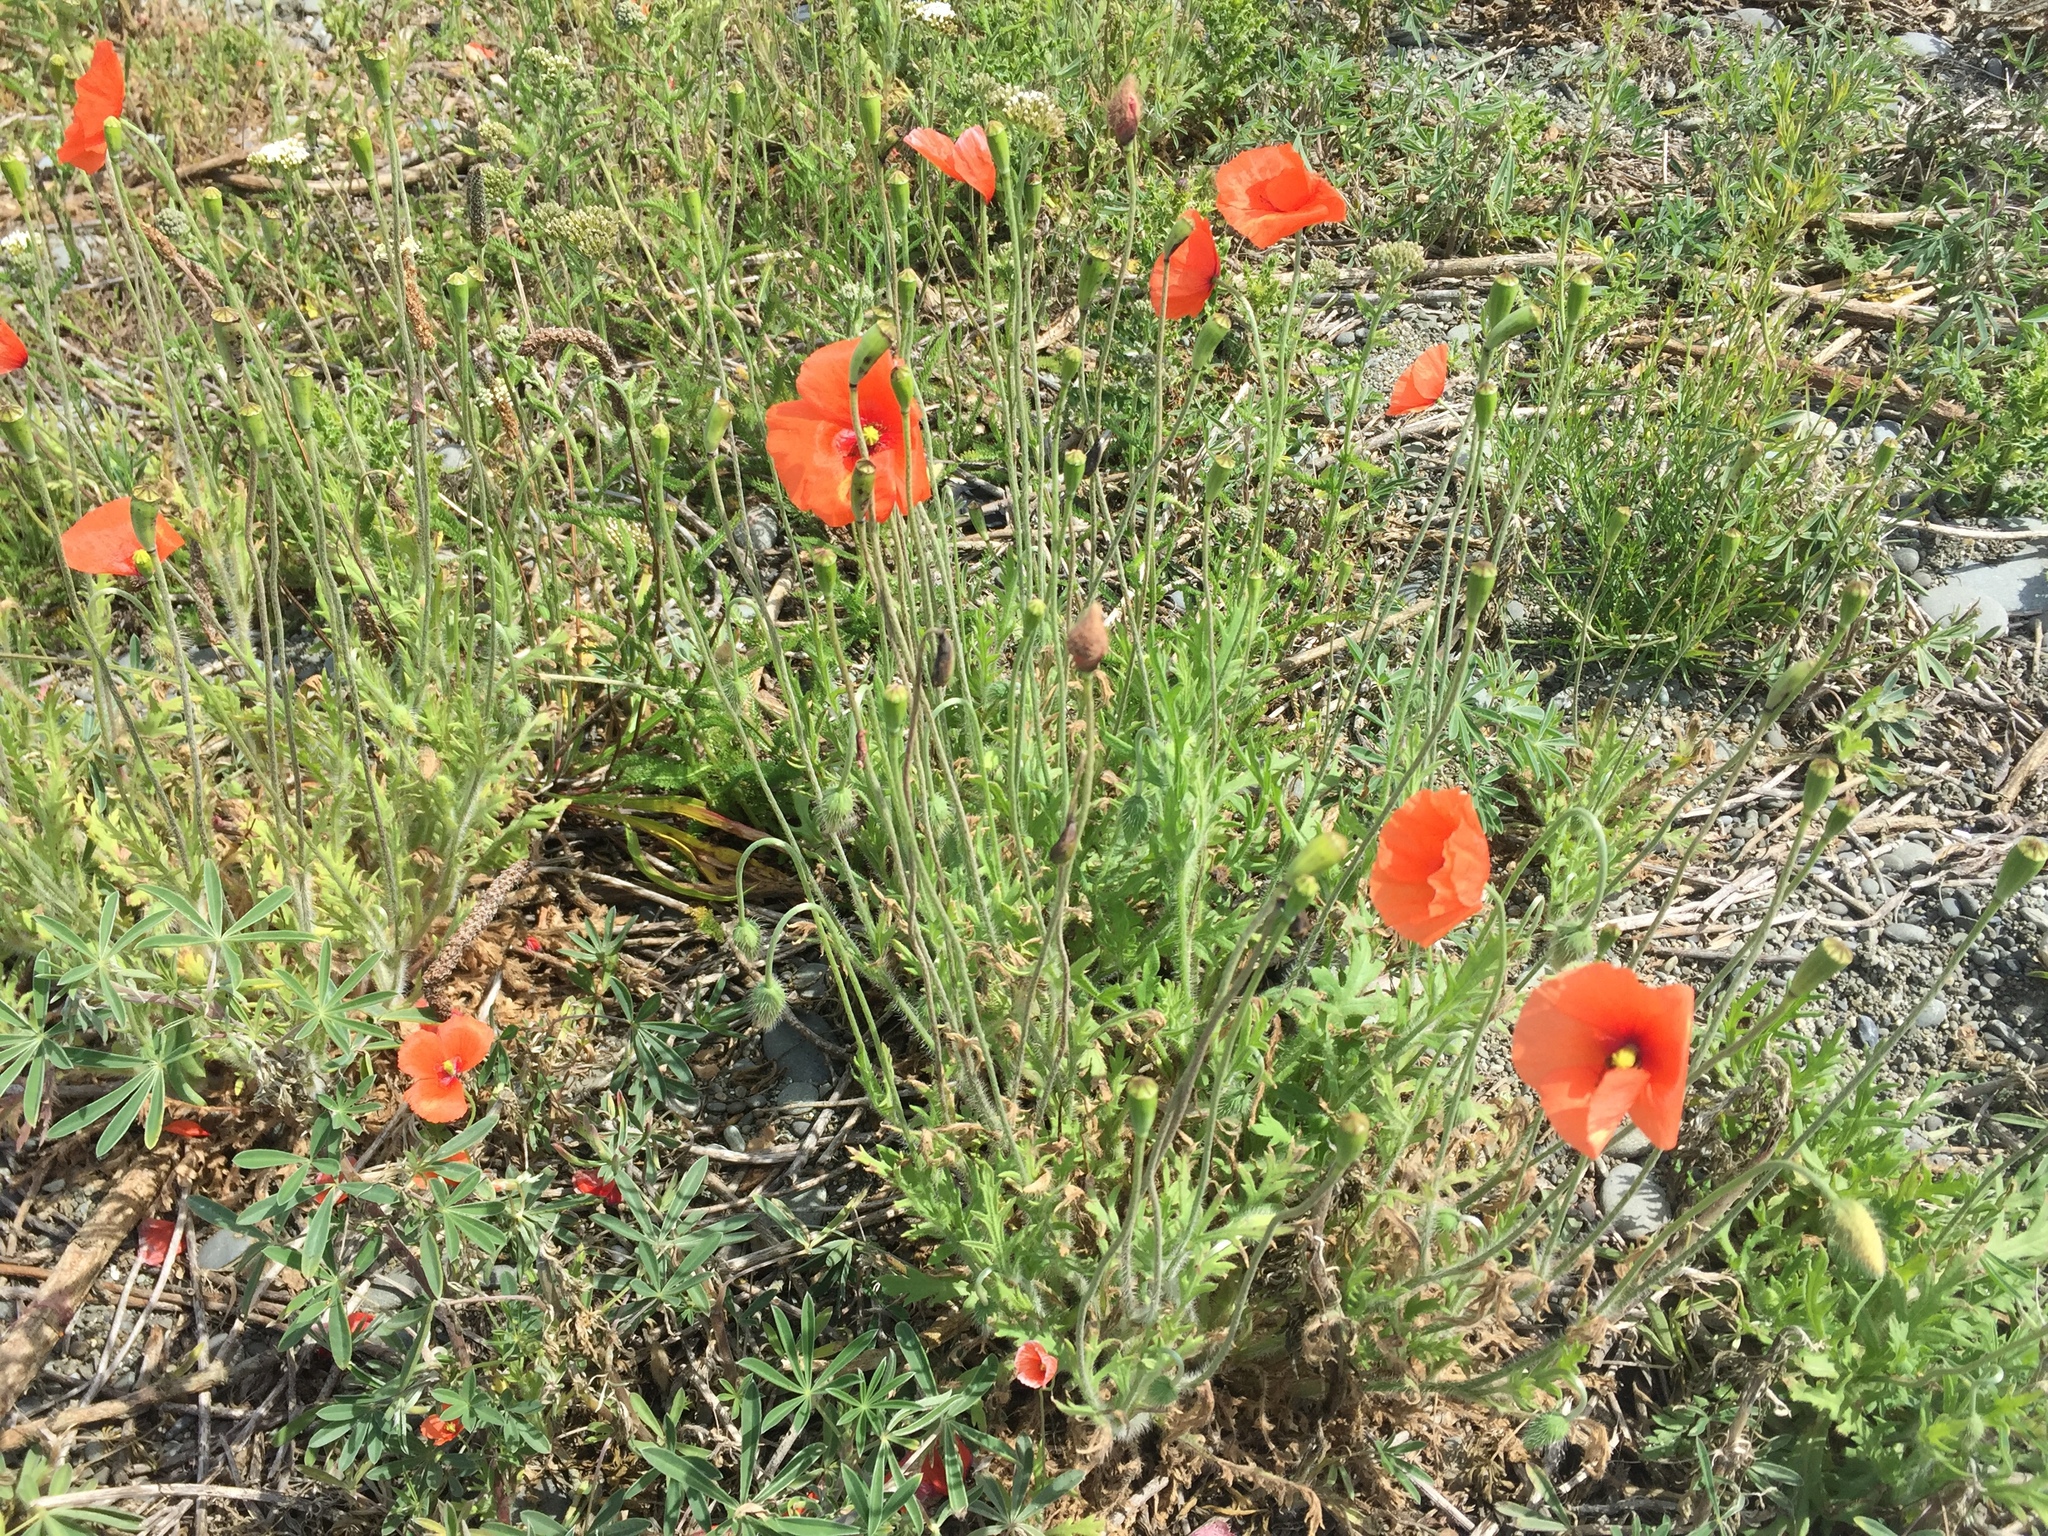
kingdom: Plantae
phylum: Tracheophyta
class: Magnoliopsida
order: Ranunculales
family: Papaveraceae
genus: Papaver
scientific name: Papaver rhoeas
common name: Corn poppy
